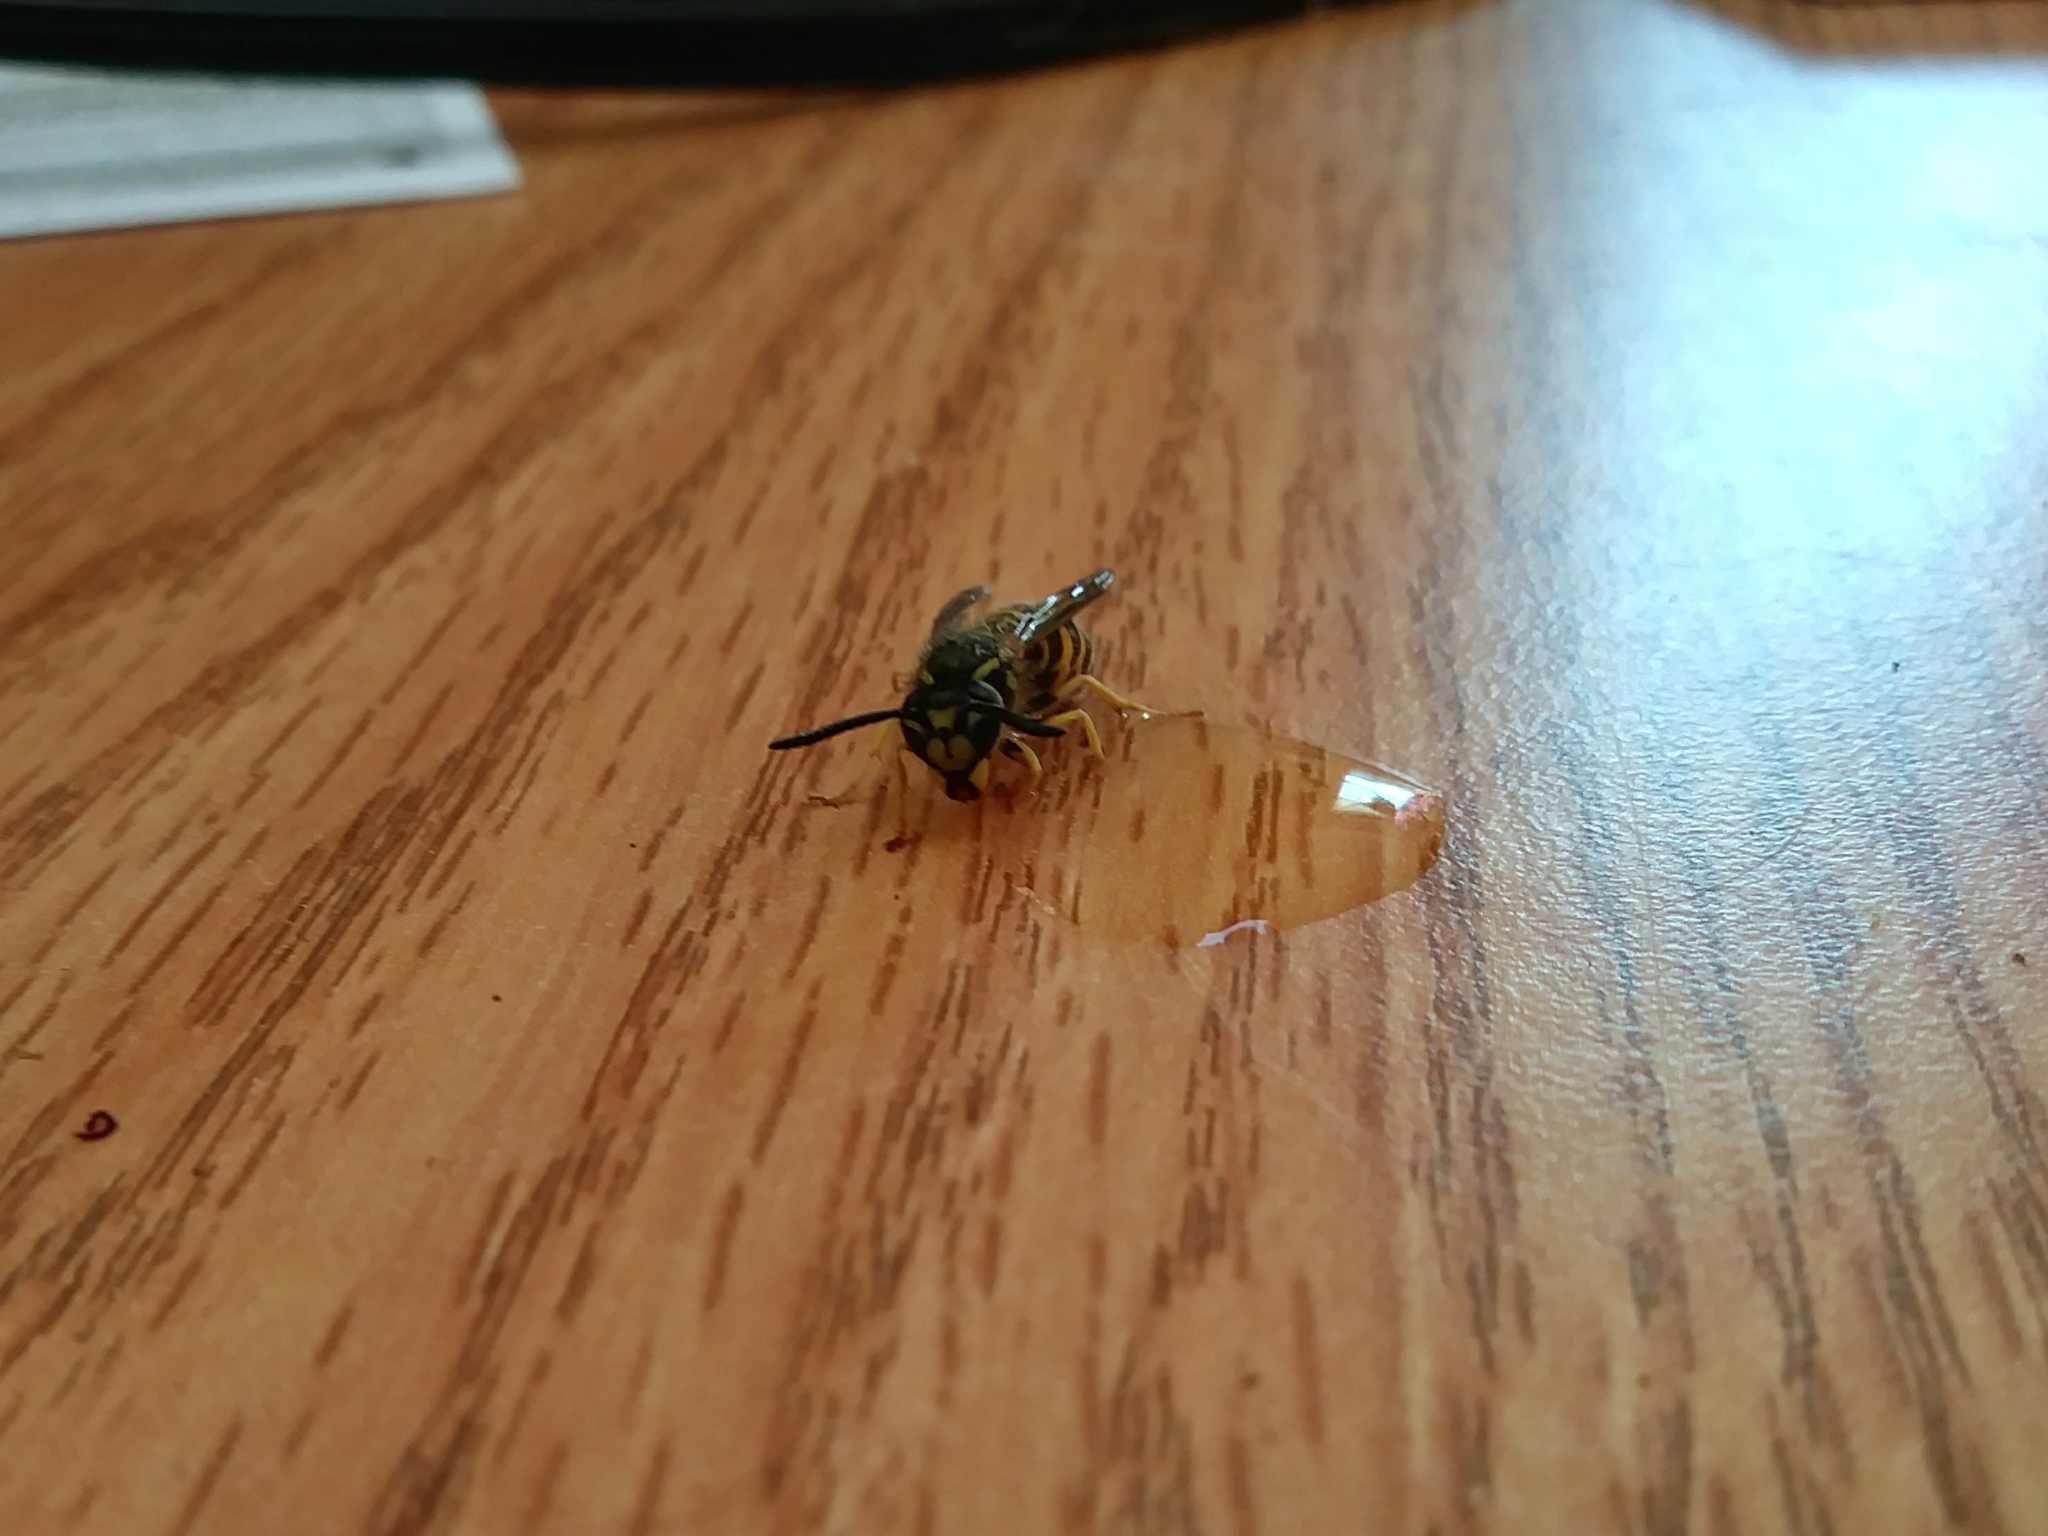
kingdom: Animalia
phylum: Arthropoda
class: Insecta
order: Hymenoptera
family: Vespidae
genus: Vespula
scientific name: Vespula maculifrons
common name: Eastern yellowjacket
